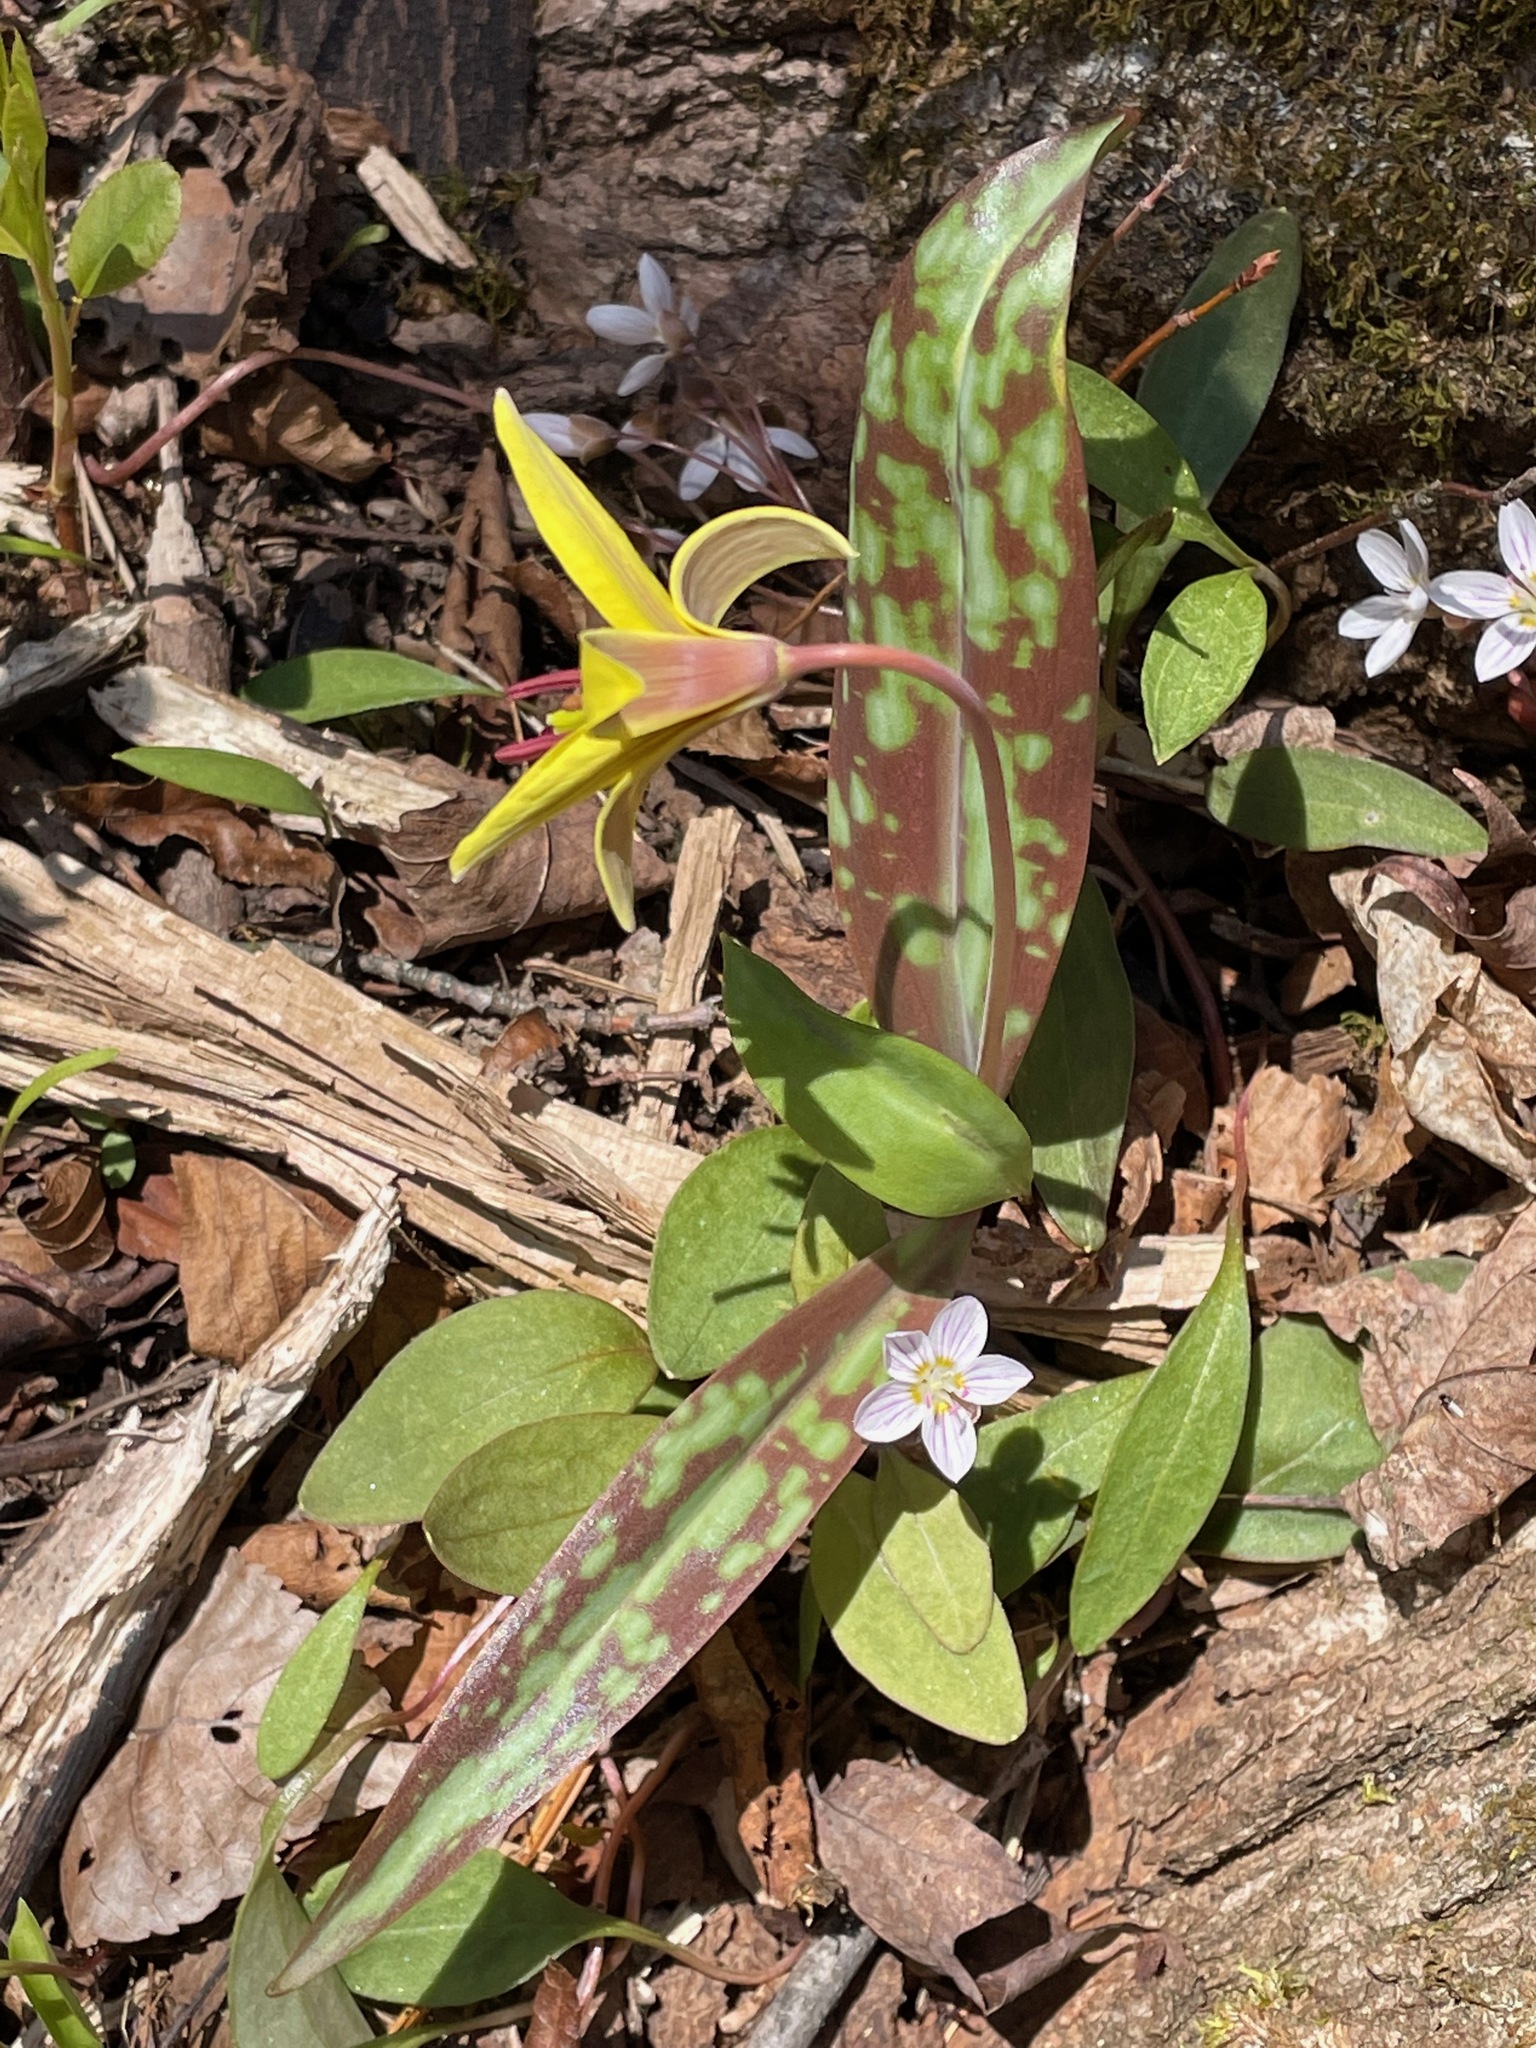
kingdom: Plantae
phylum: Tracheophyta
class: Liliopsida
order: Liliales
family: Liliaceae
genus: Erythronium
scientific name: Erythronium americanum
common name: Yellow adder's-tongue
